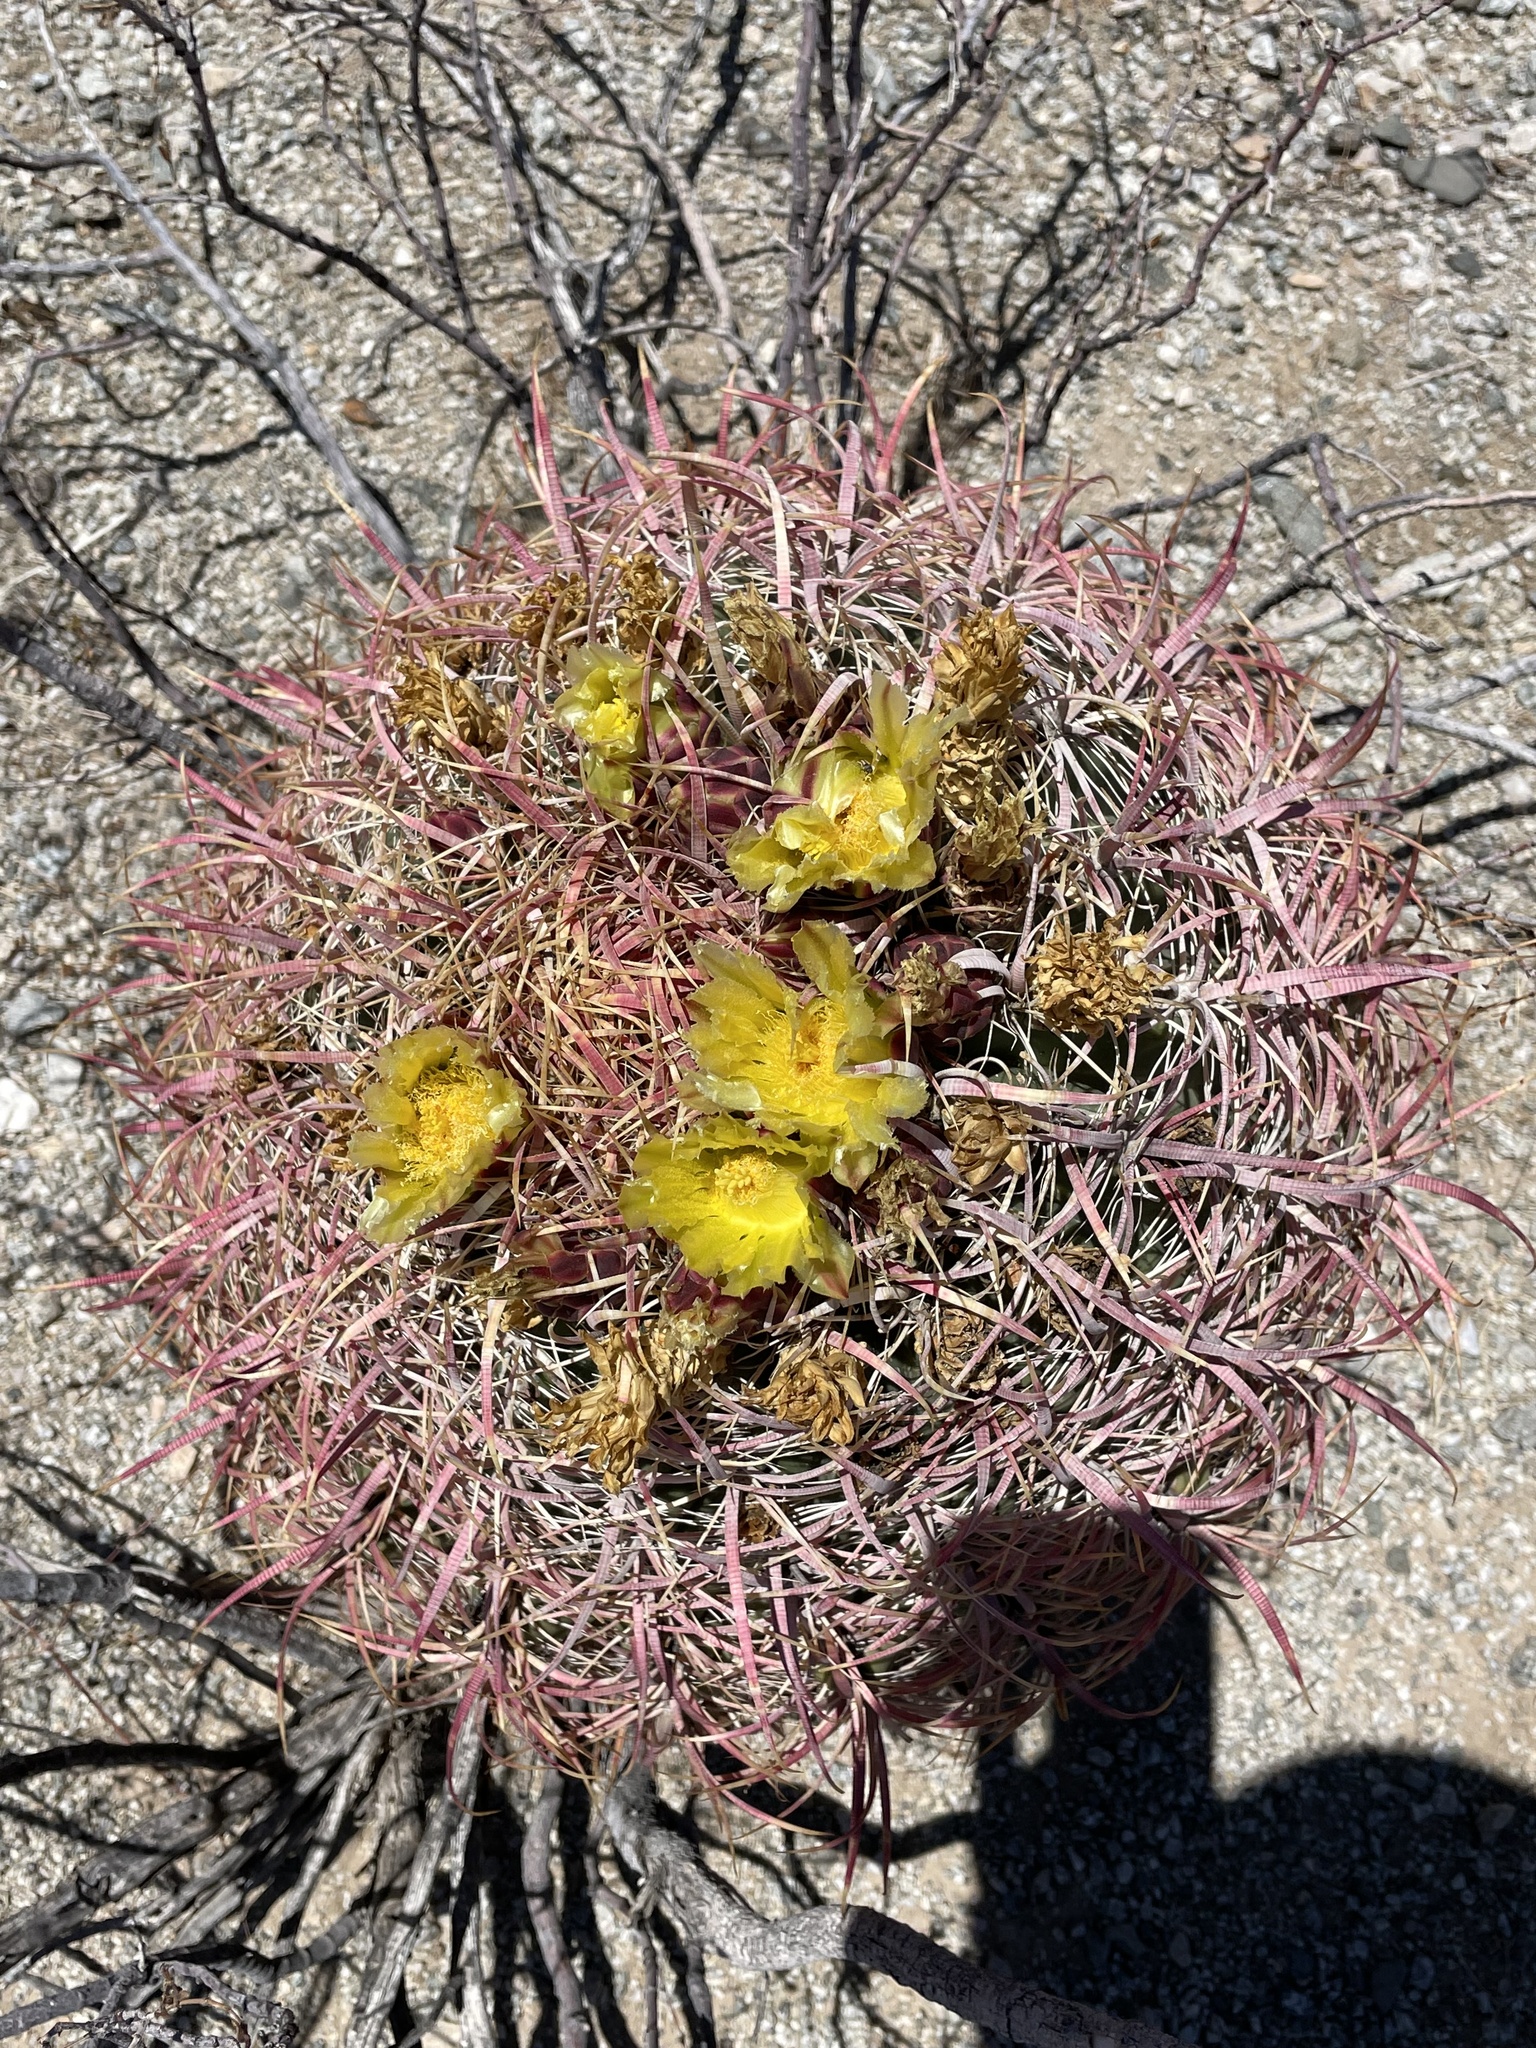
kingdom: Plantae
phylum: Tracheophyta
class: Magnoliopsida
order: Caryophyllales
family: Cactaceae
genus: Ferocactus
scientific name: Ferocactus cylindraceus
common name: California barrel cactus
